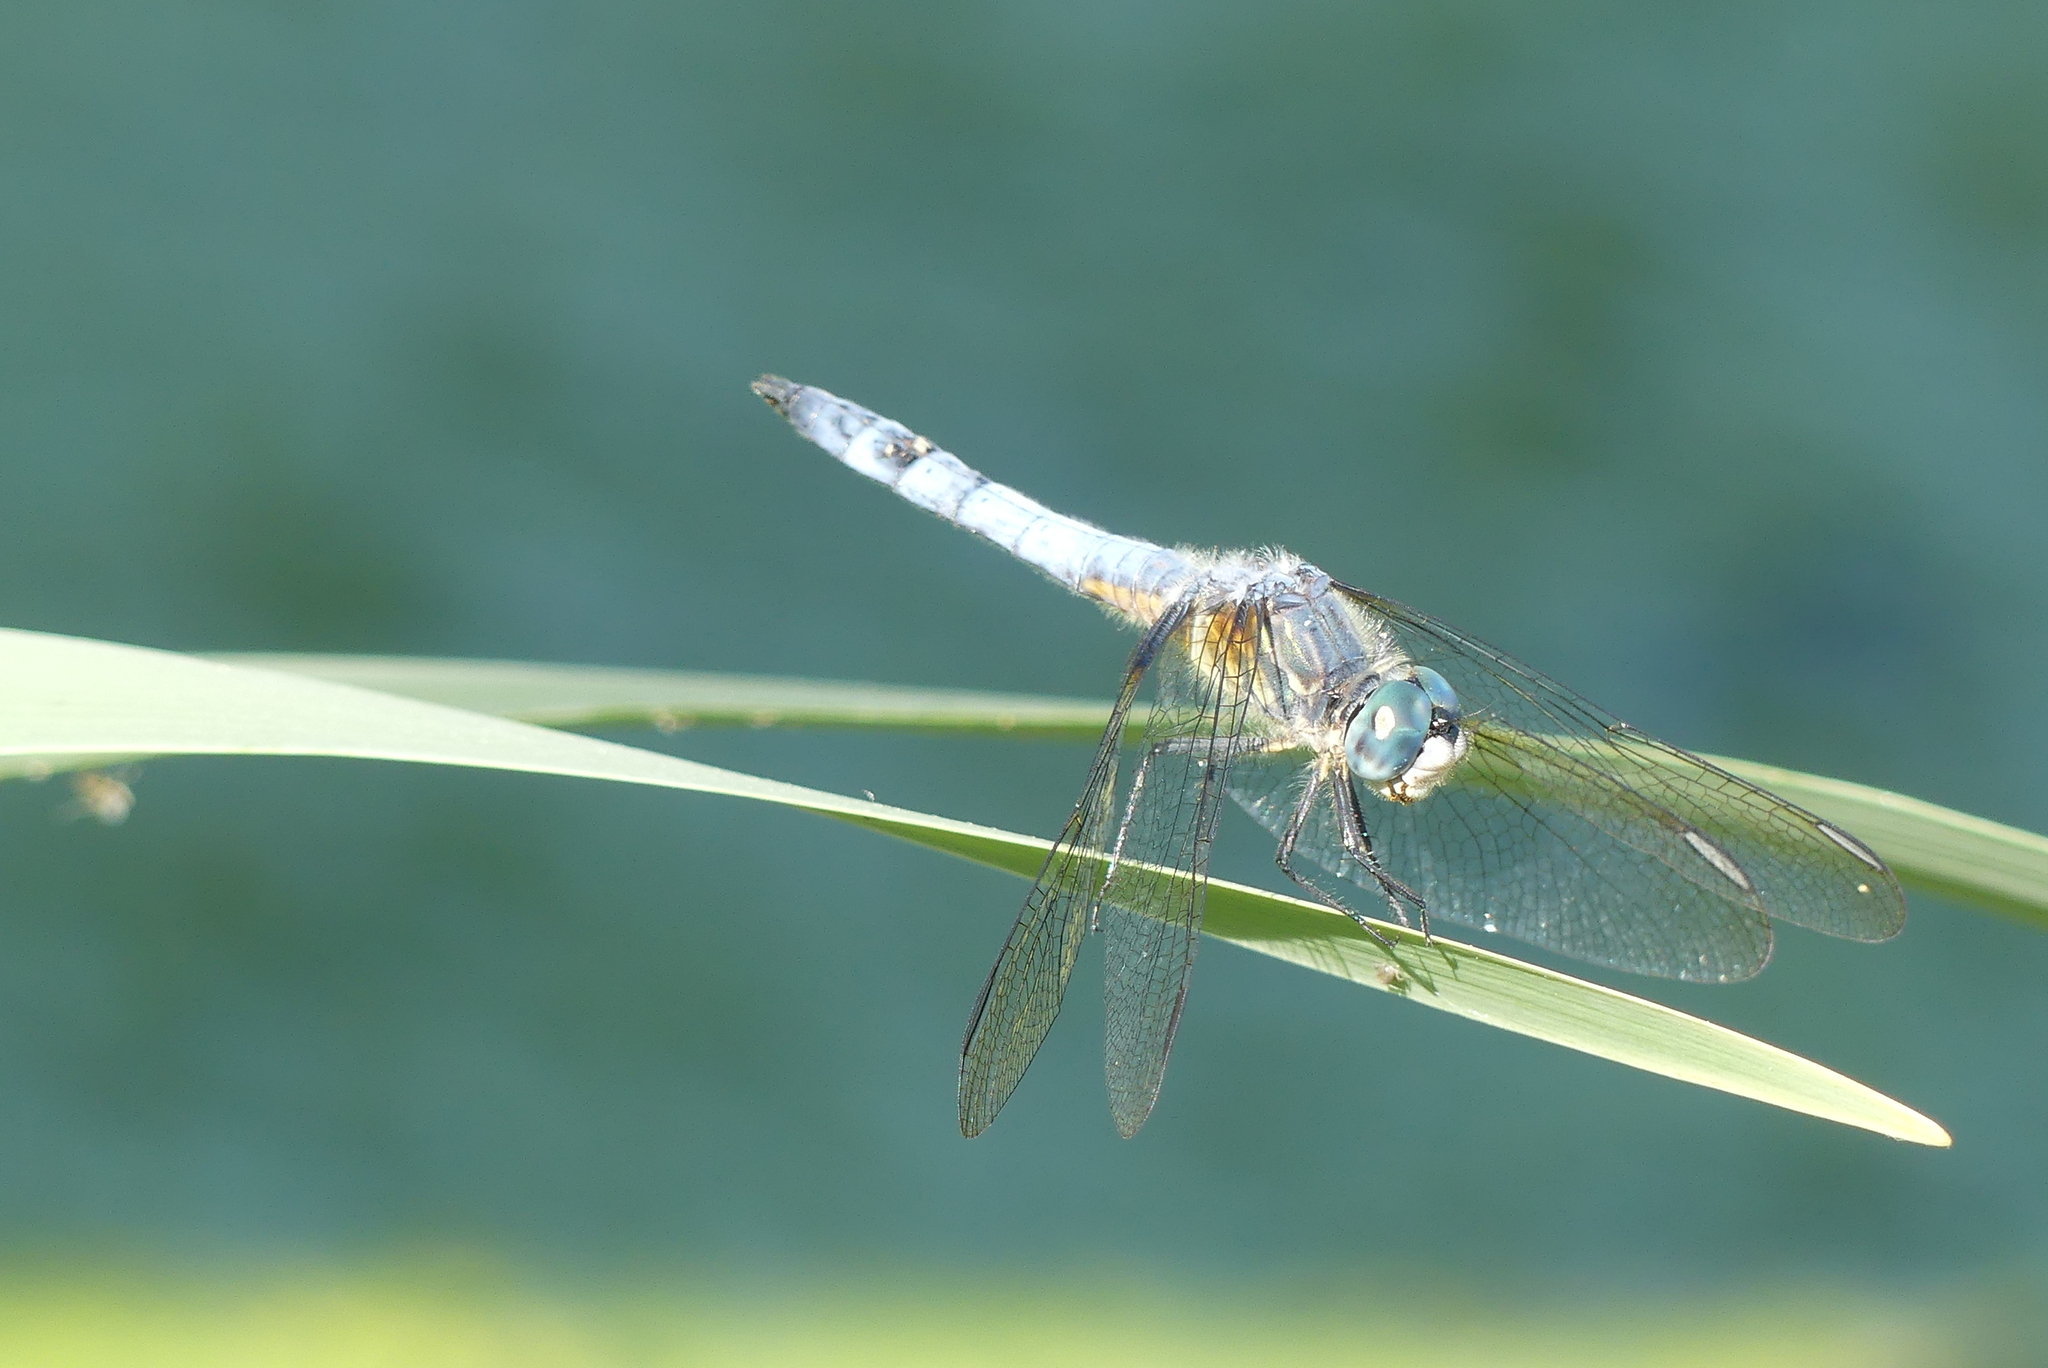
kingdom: Animalia
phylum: Arthropoda
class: Insecta
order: Odonata
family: Libellulidae
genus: Pachydiplax
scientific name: Pachydiplax longipennis
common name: Blue dasher
